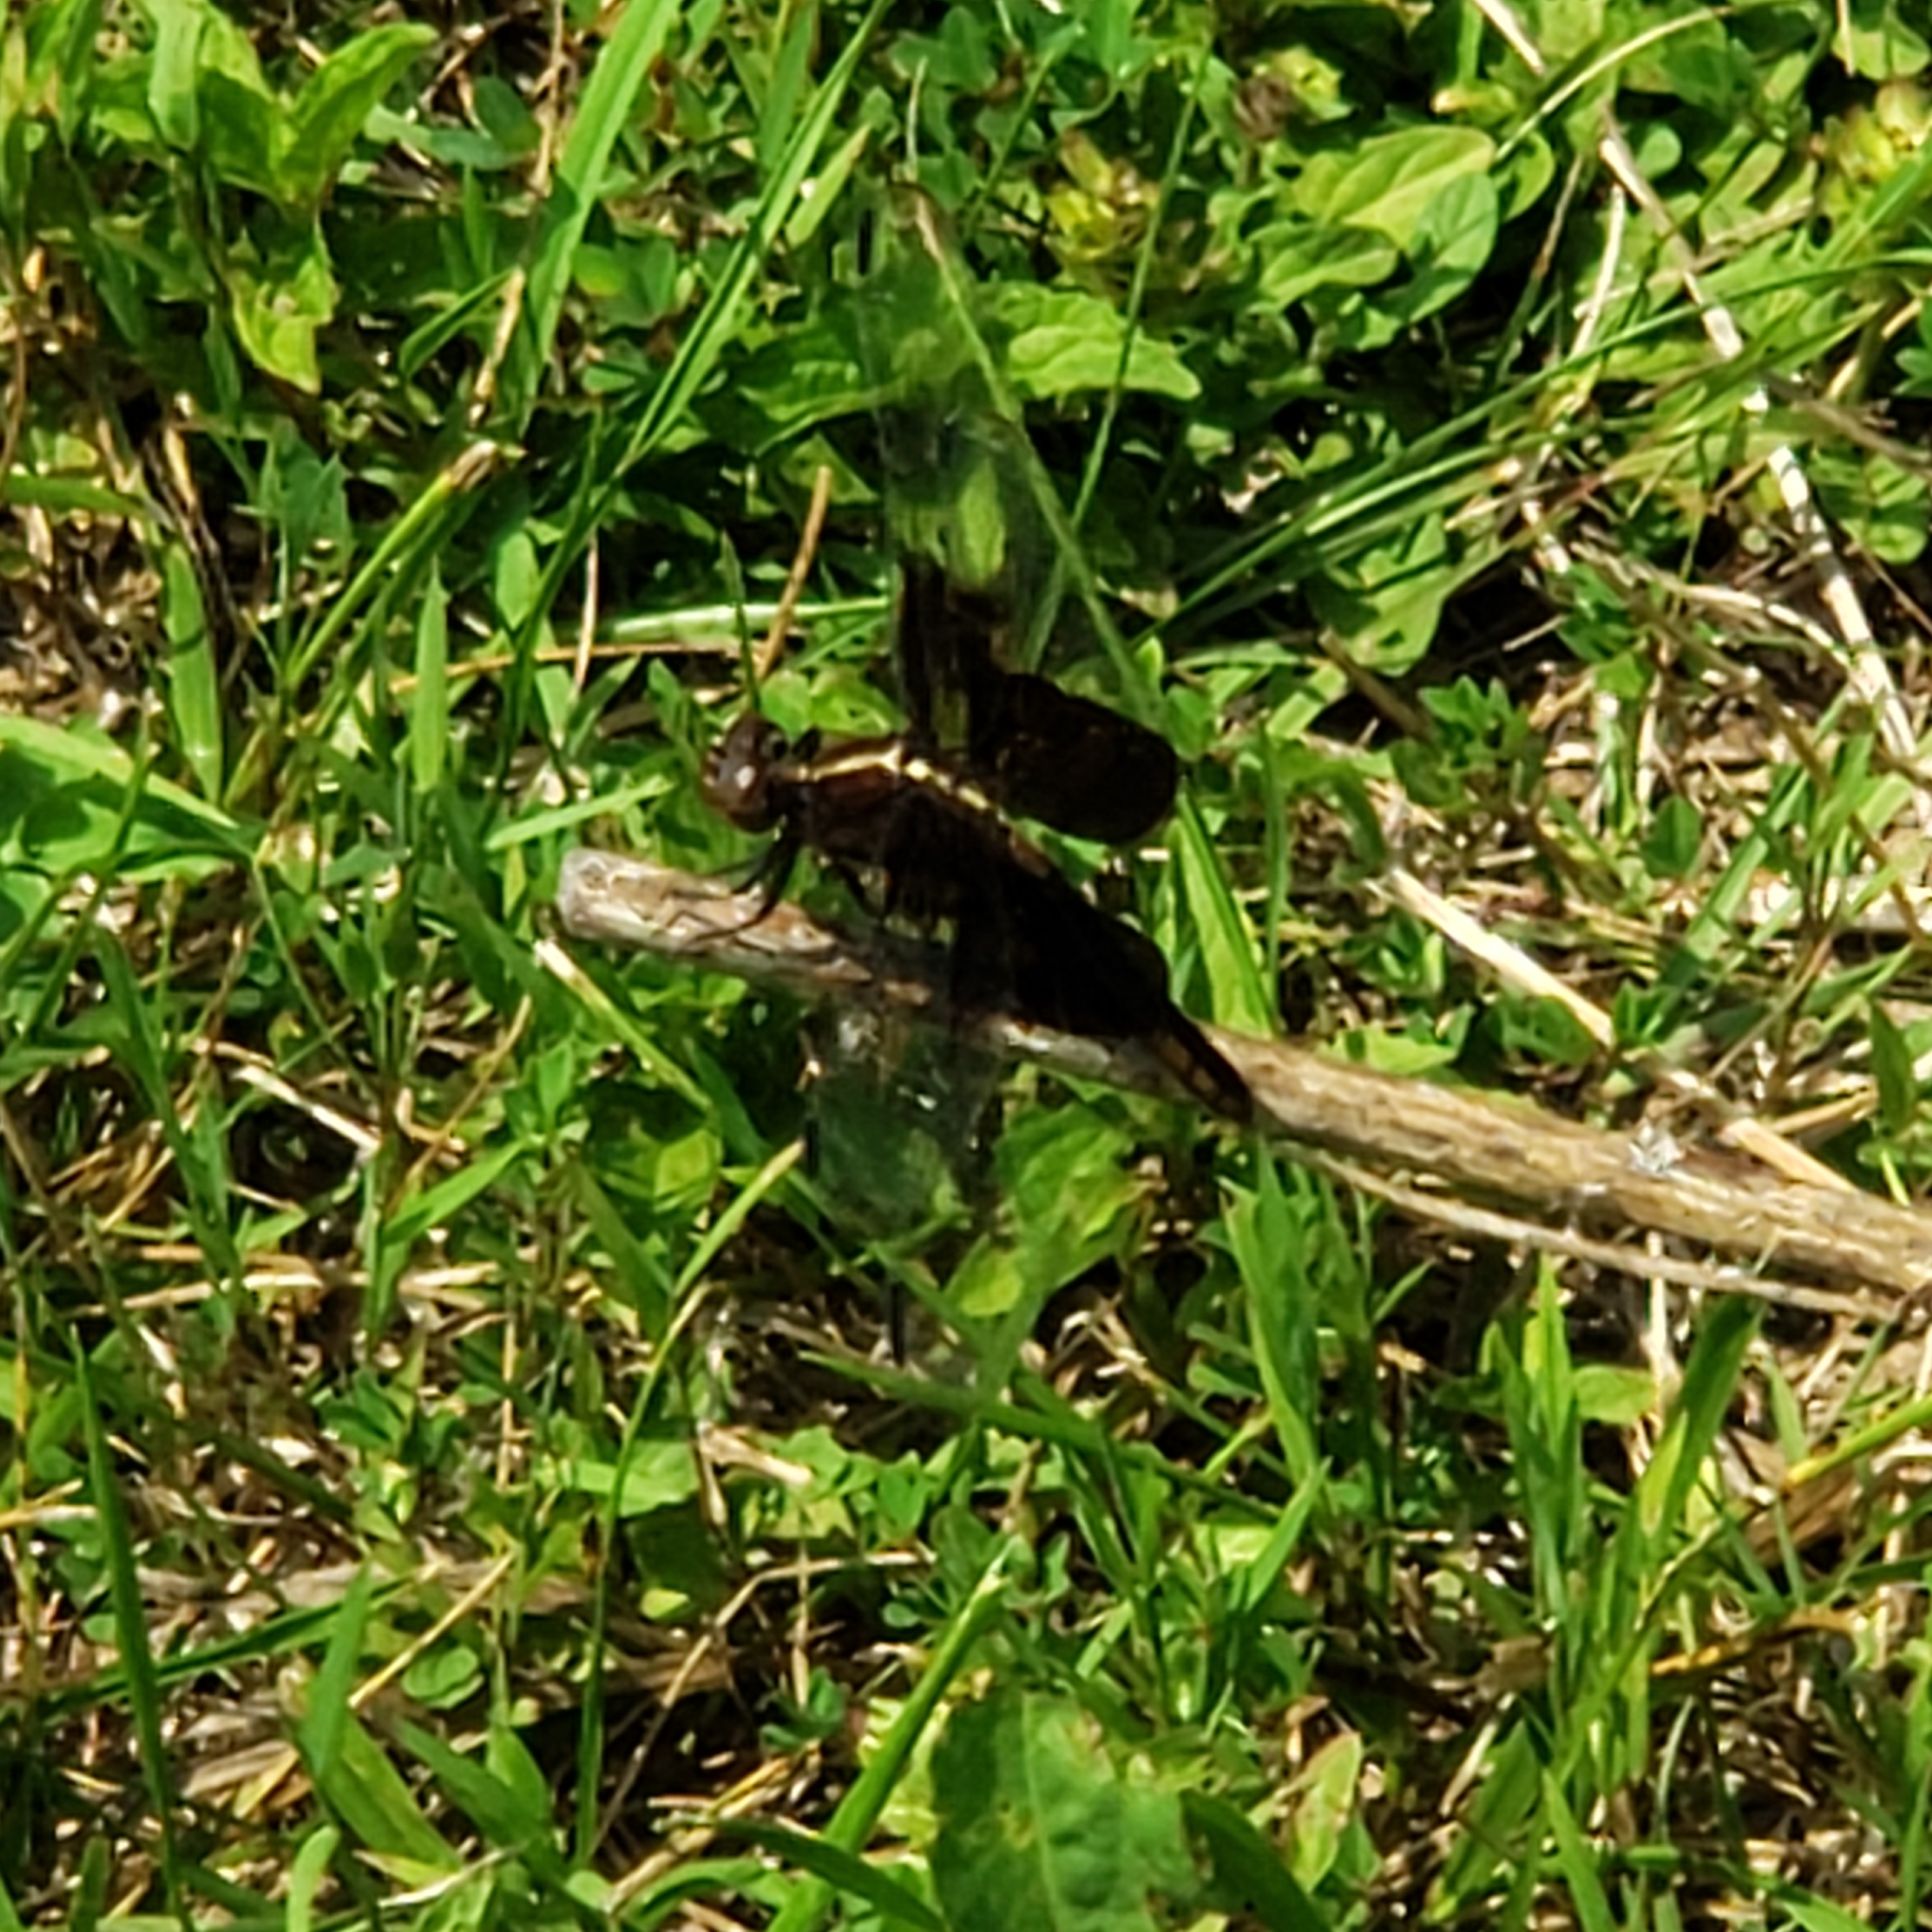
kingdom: Animalia
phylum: Arthropoda
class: Insecta
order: Odonata
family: Libellulidae
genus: Libellula
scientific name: Libellula luctuosa
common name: Widow skimmer
